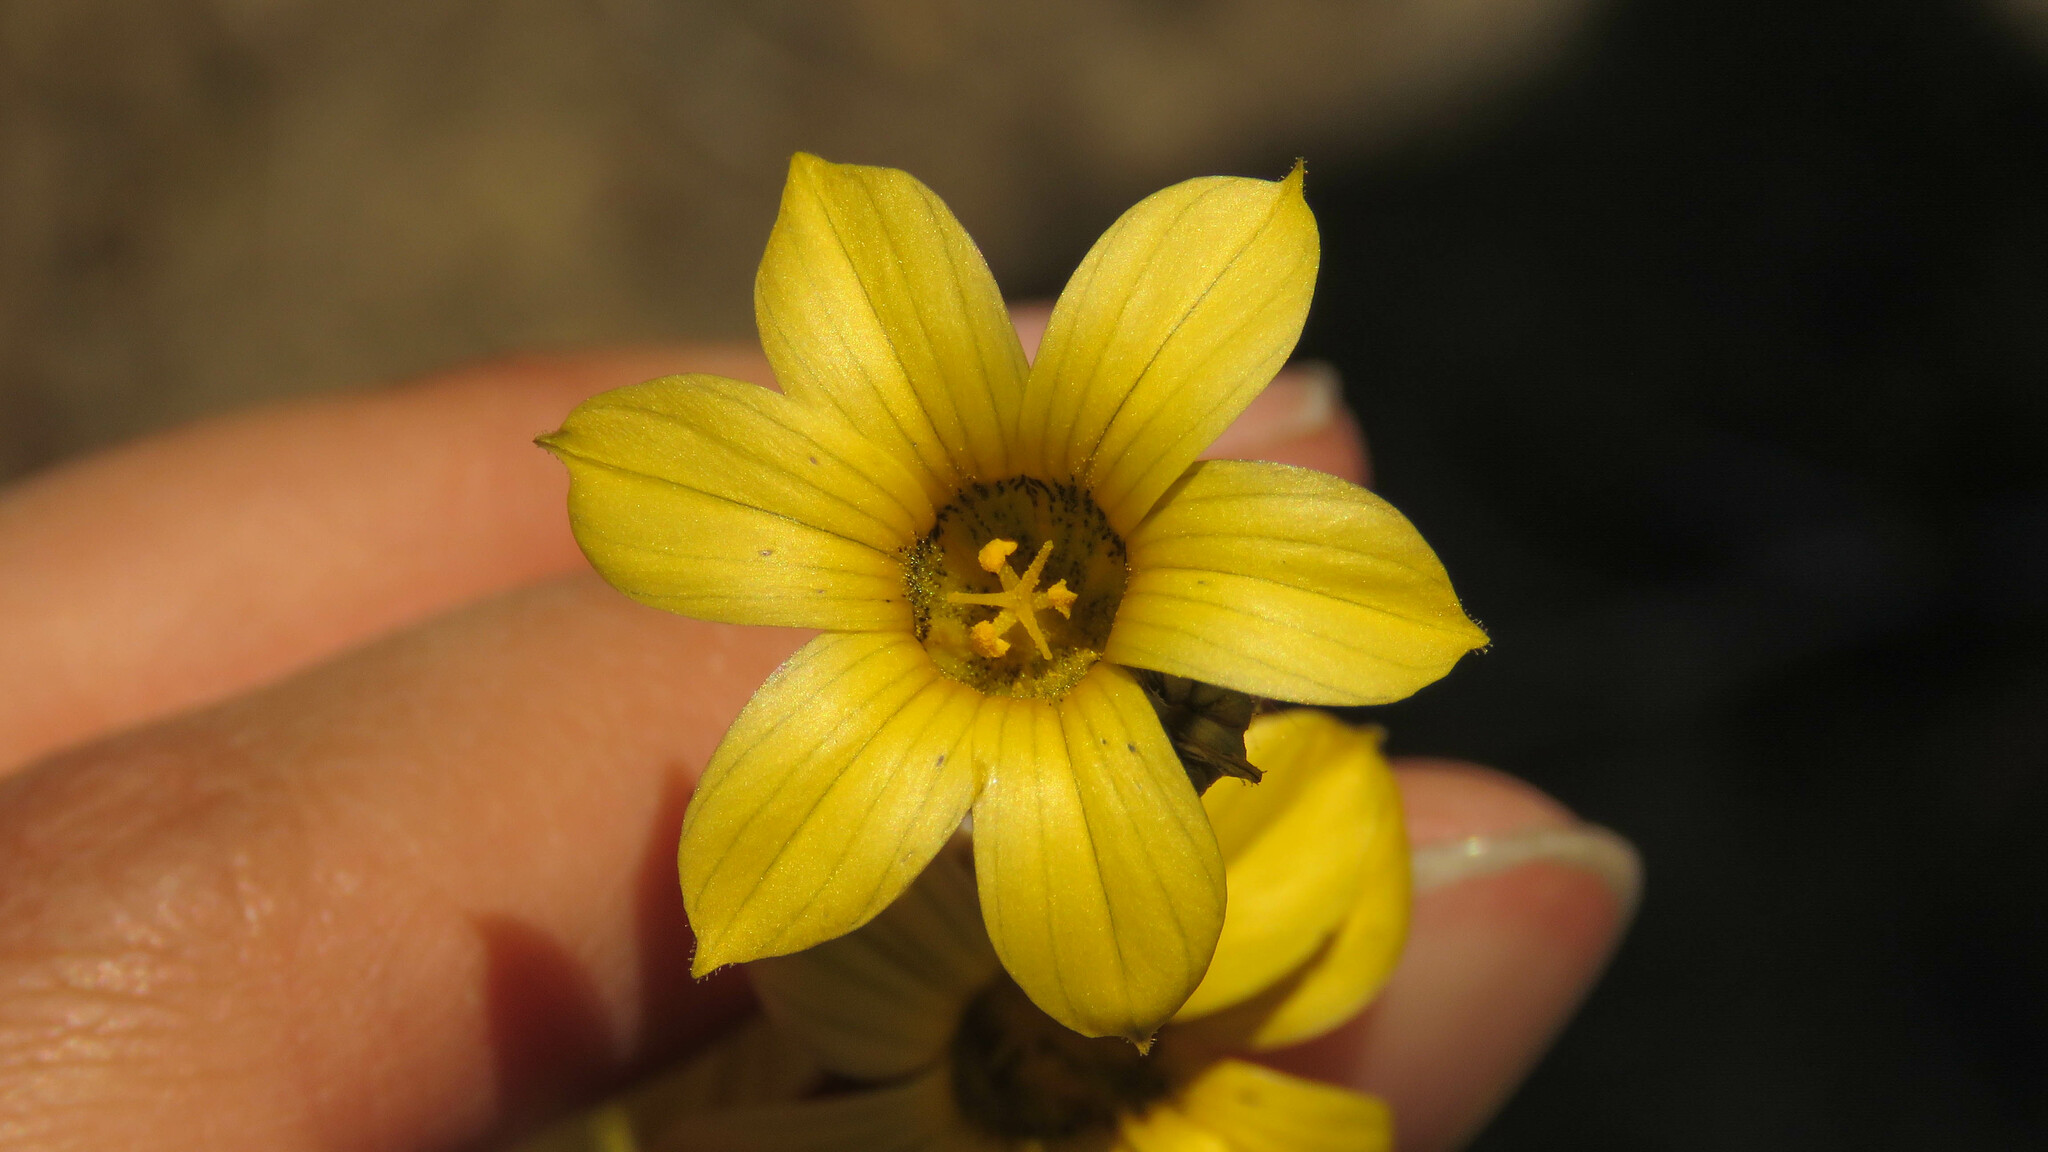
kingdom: Plantae
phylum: Tracheophyta
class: Liliopsida
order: Asparagales
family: Iridaceae
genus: Sisyrinchium
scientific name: Sisyrinchium arenarium
